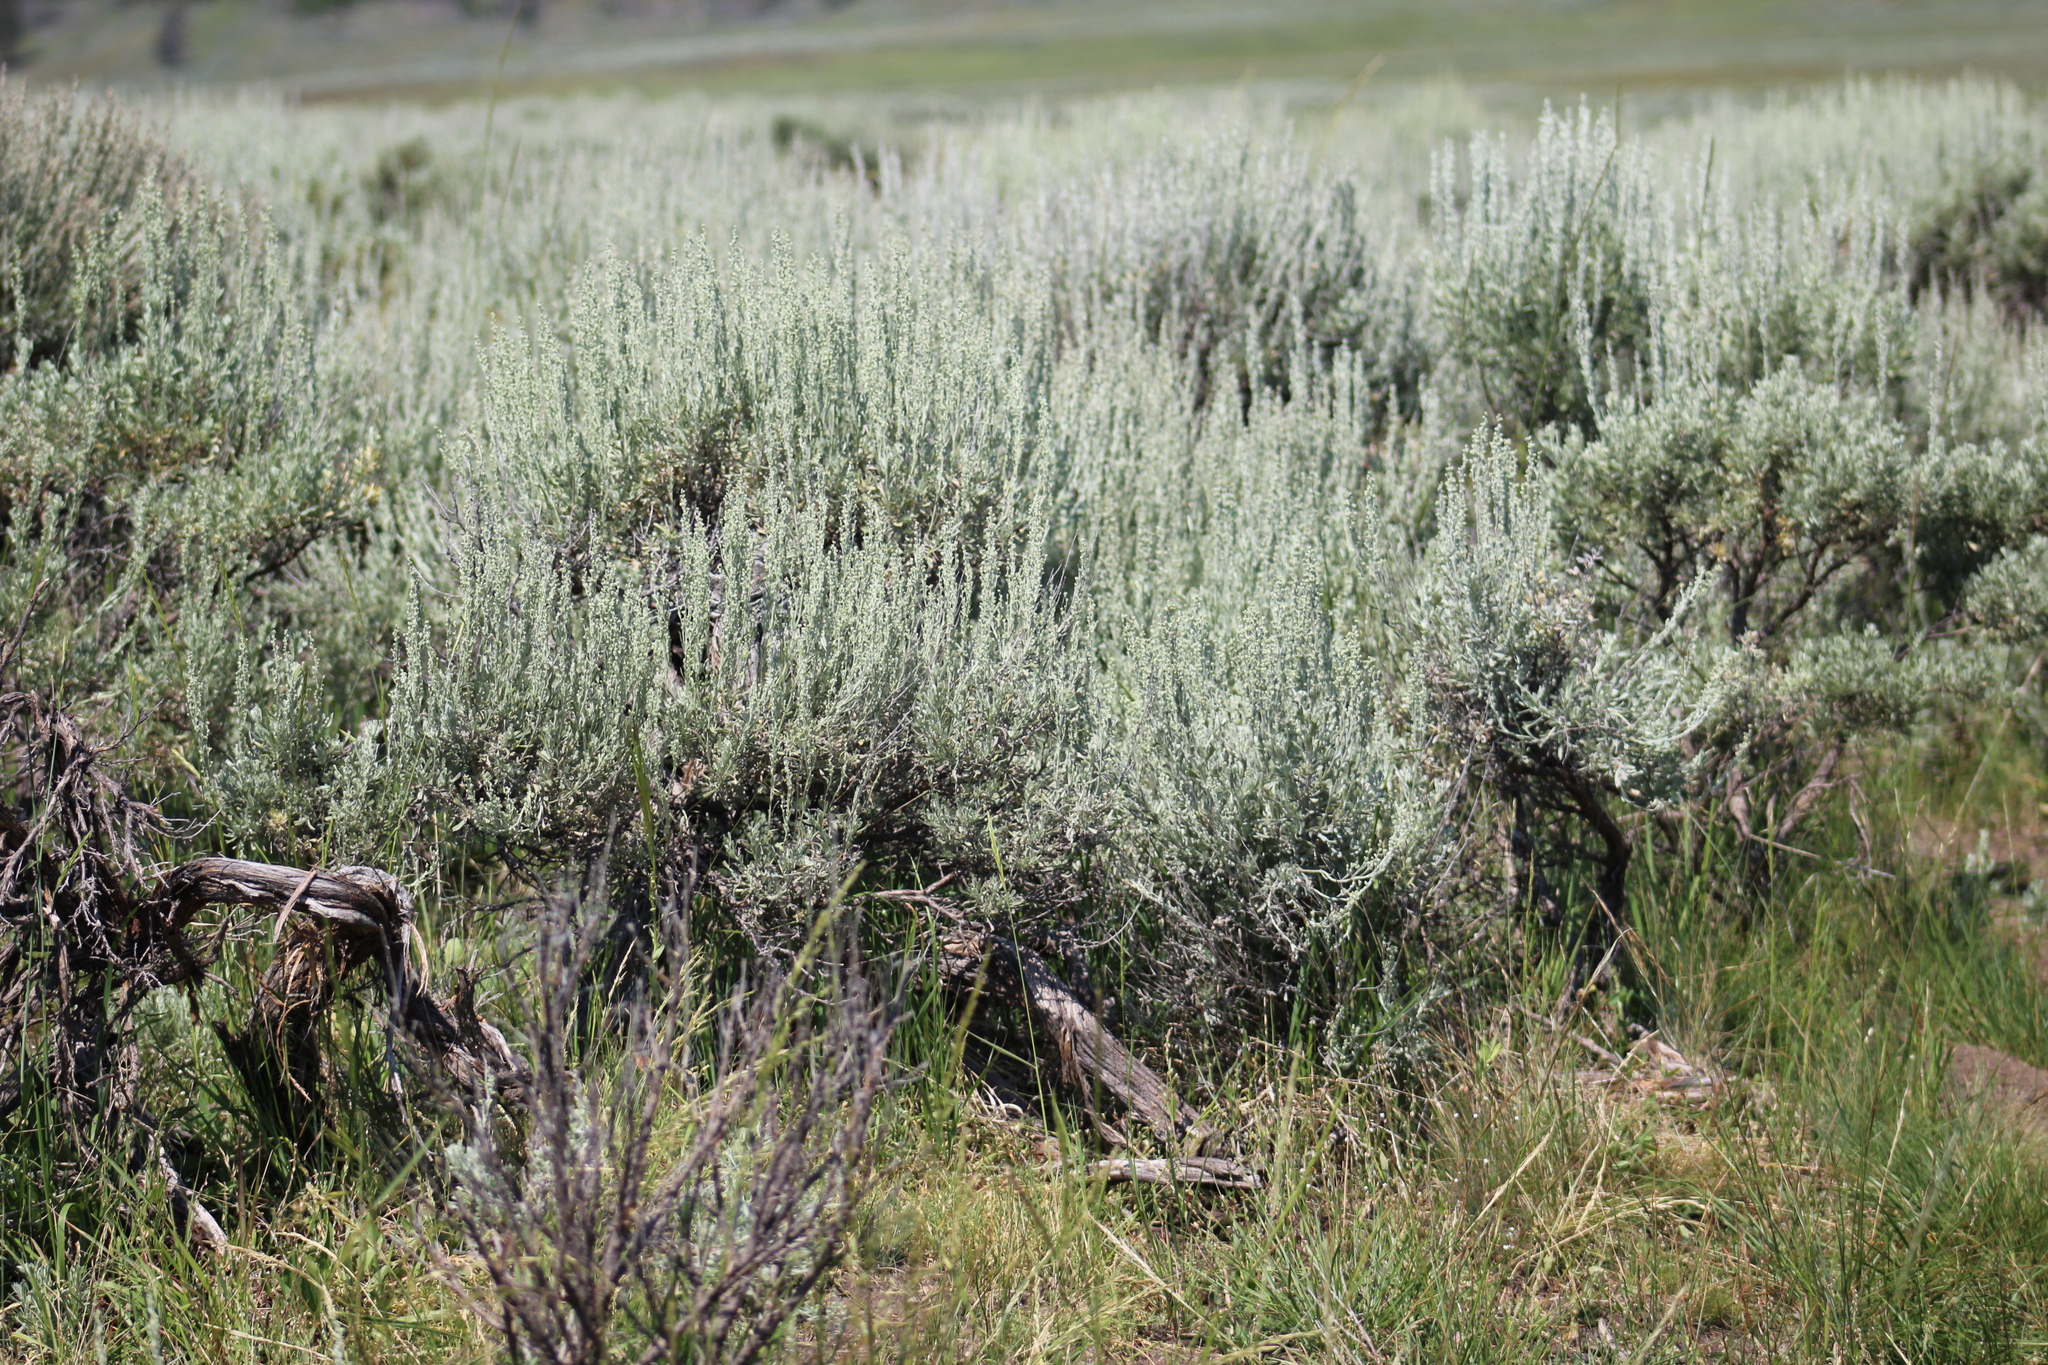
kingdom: Plantae
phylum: Tracheophyta
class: Magnoliopsida
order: Asterales
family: Asteraceae
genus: Artemisia
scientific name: Artemisia tridentata
